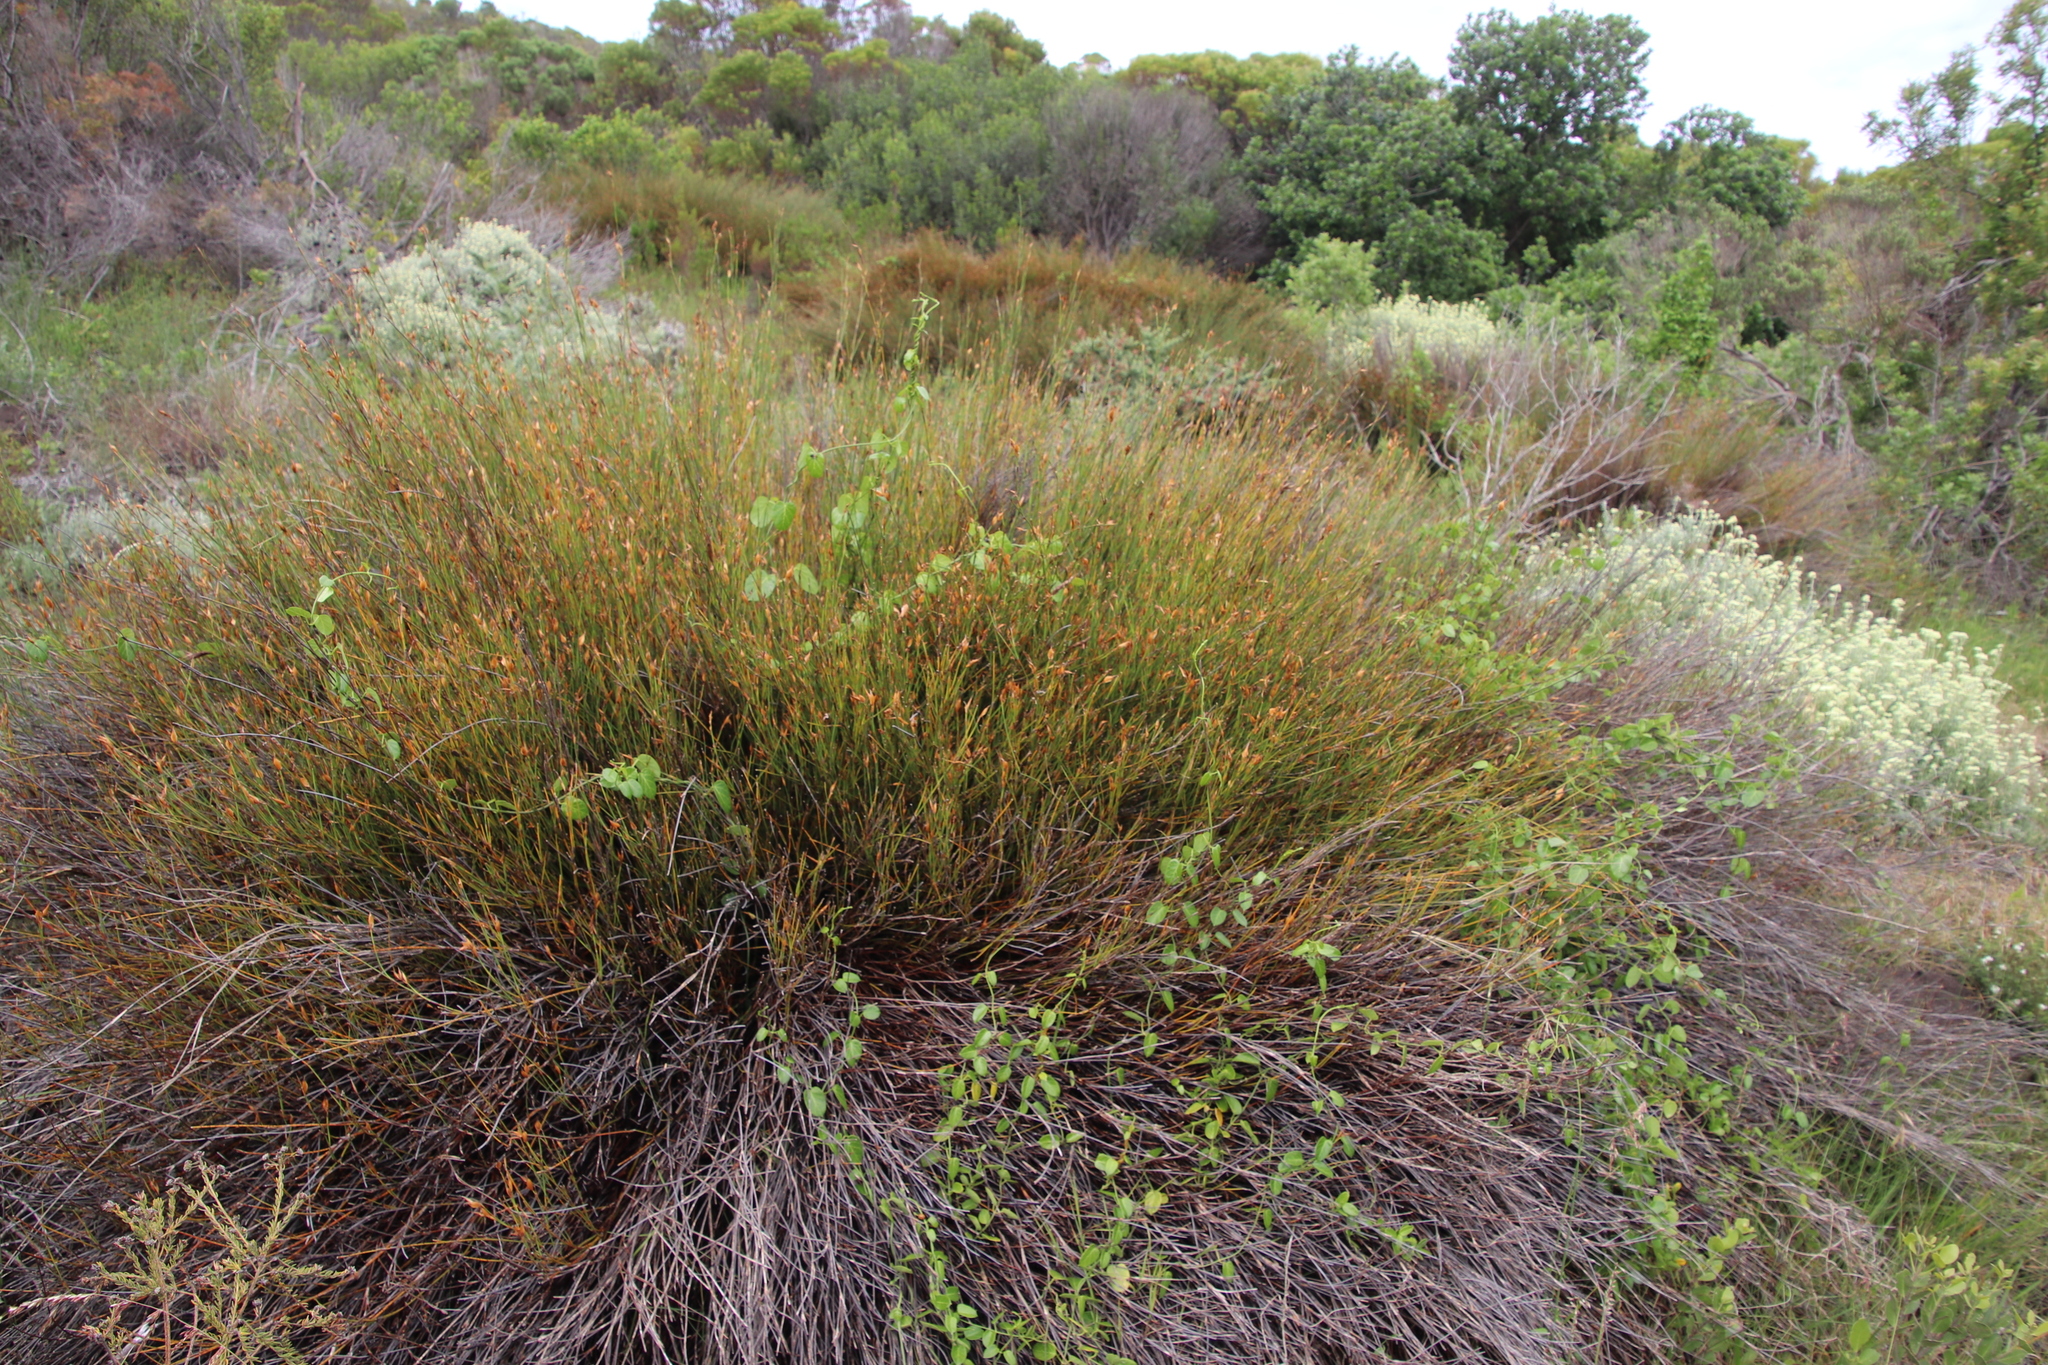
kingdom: Plantae
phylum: Tracheophyta
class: Liliopsida
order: Poales
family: Restionaceae
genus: Willdenowia
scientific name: Willdenowia teres
